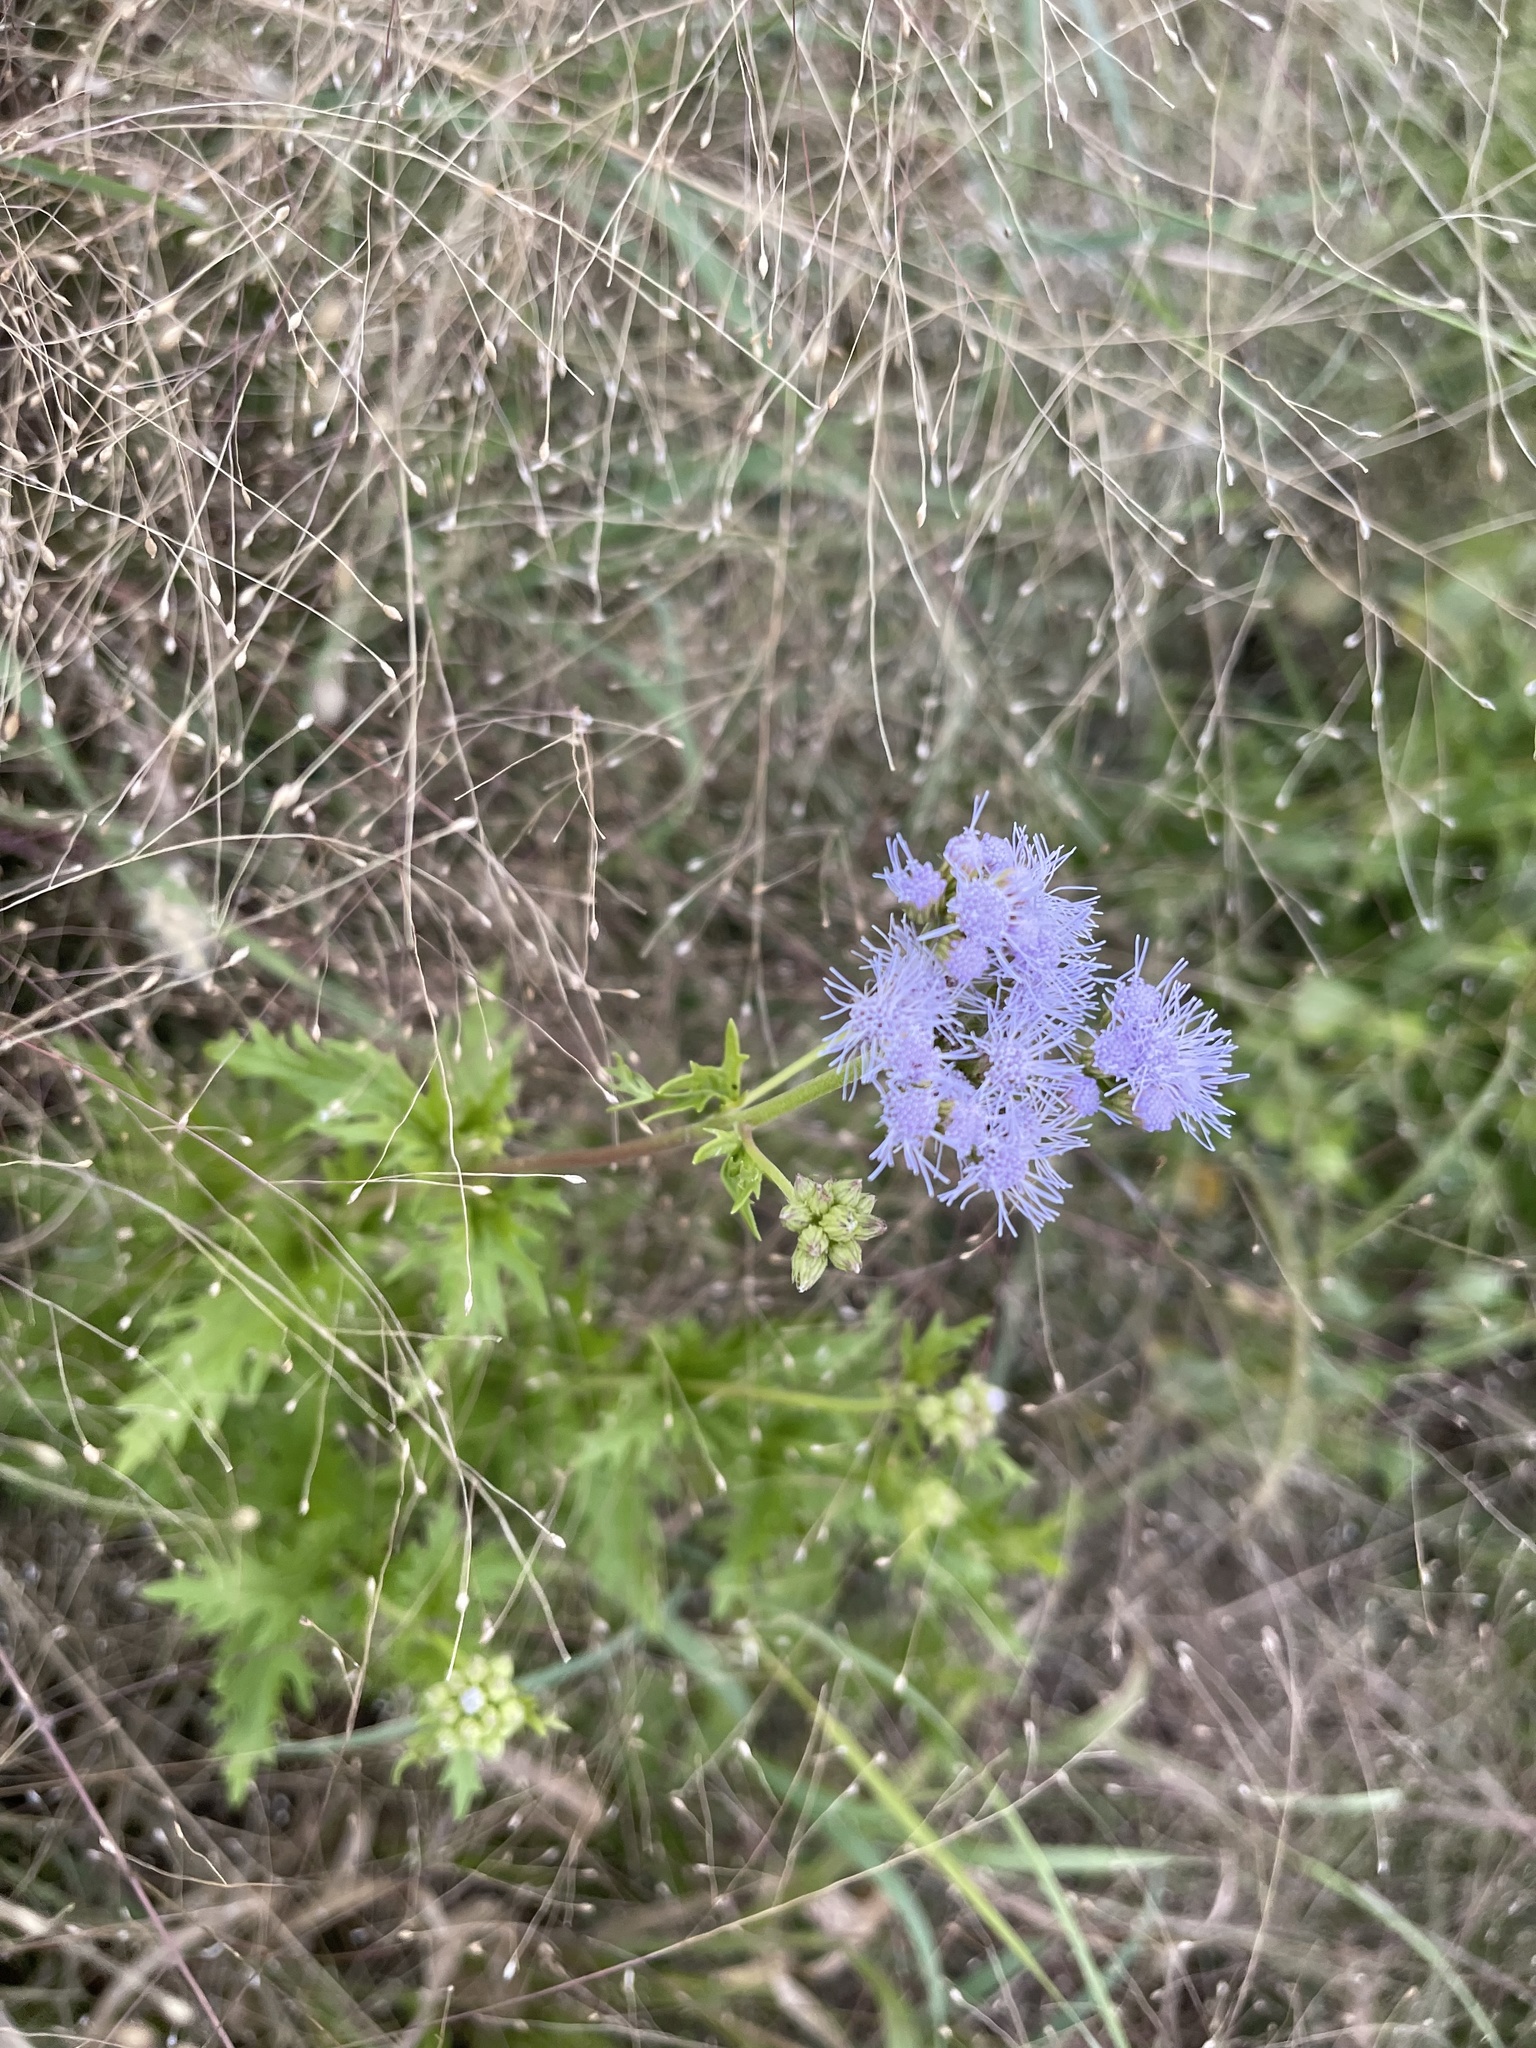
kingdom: Plantae
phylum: Tracheophyta
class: Magnoliopsida
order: Asterales
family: Asteraceae
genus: Conoclinium
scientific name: Conoclinium dissectum
